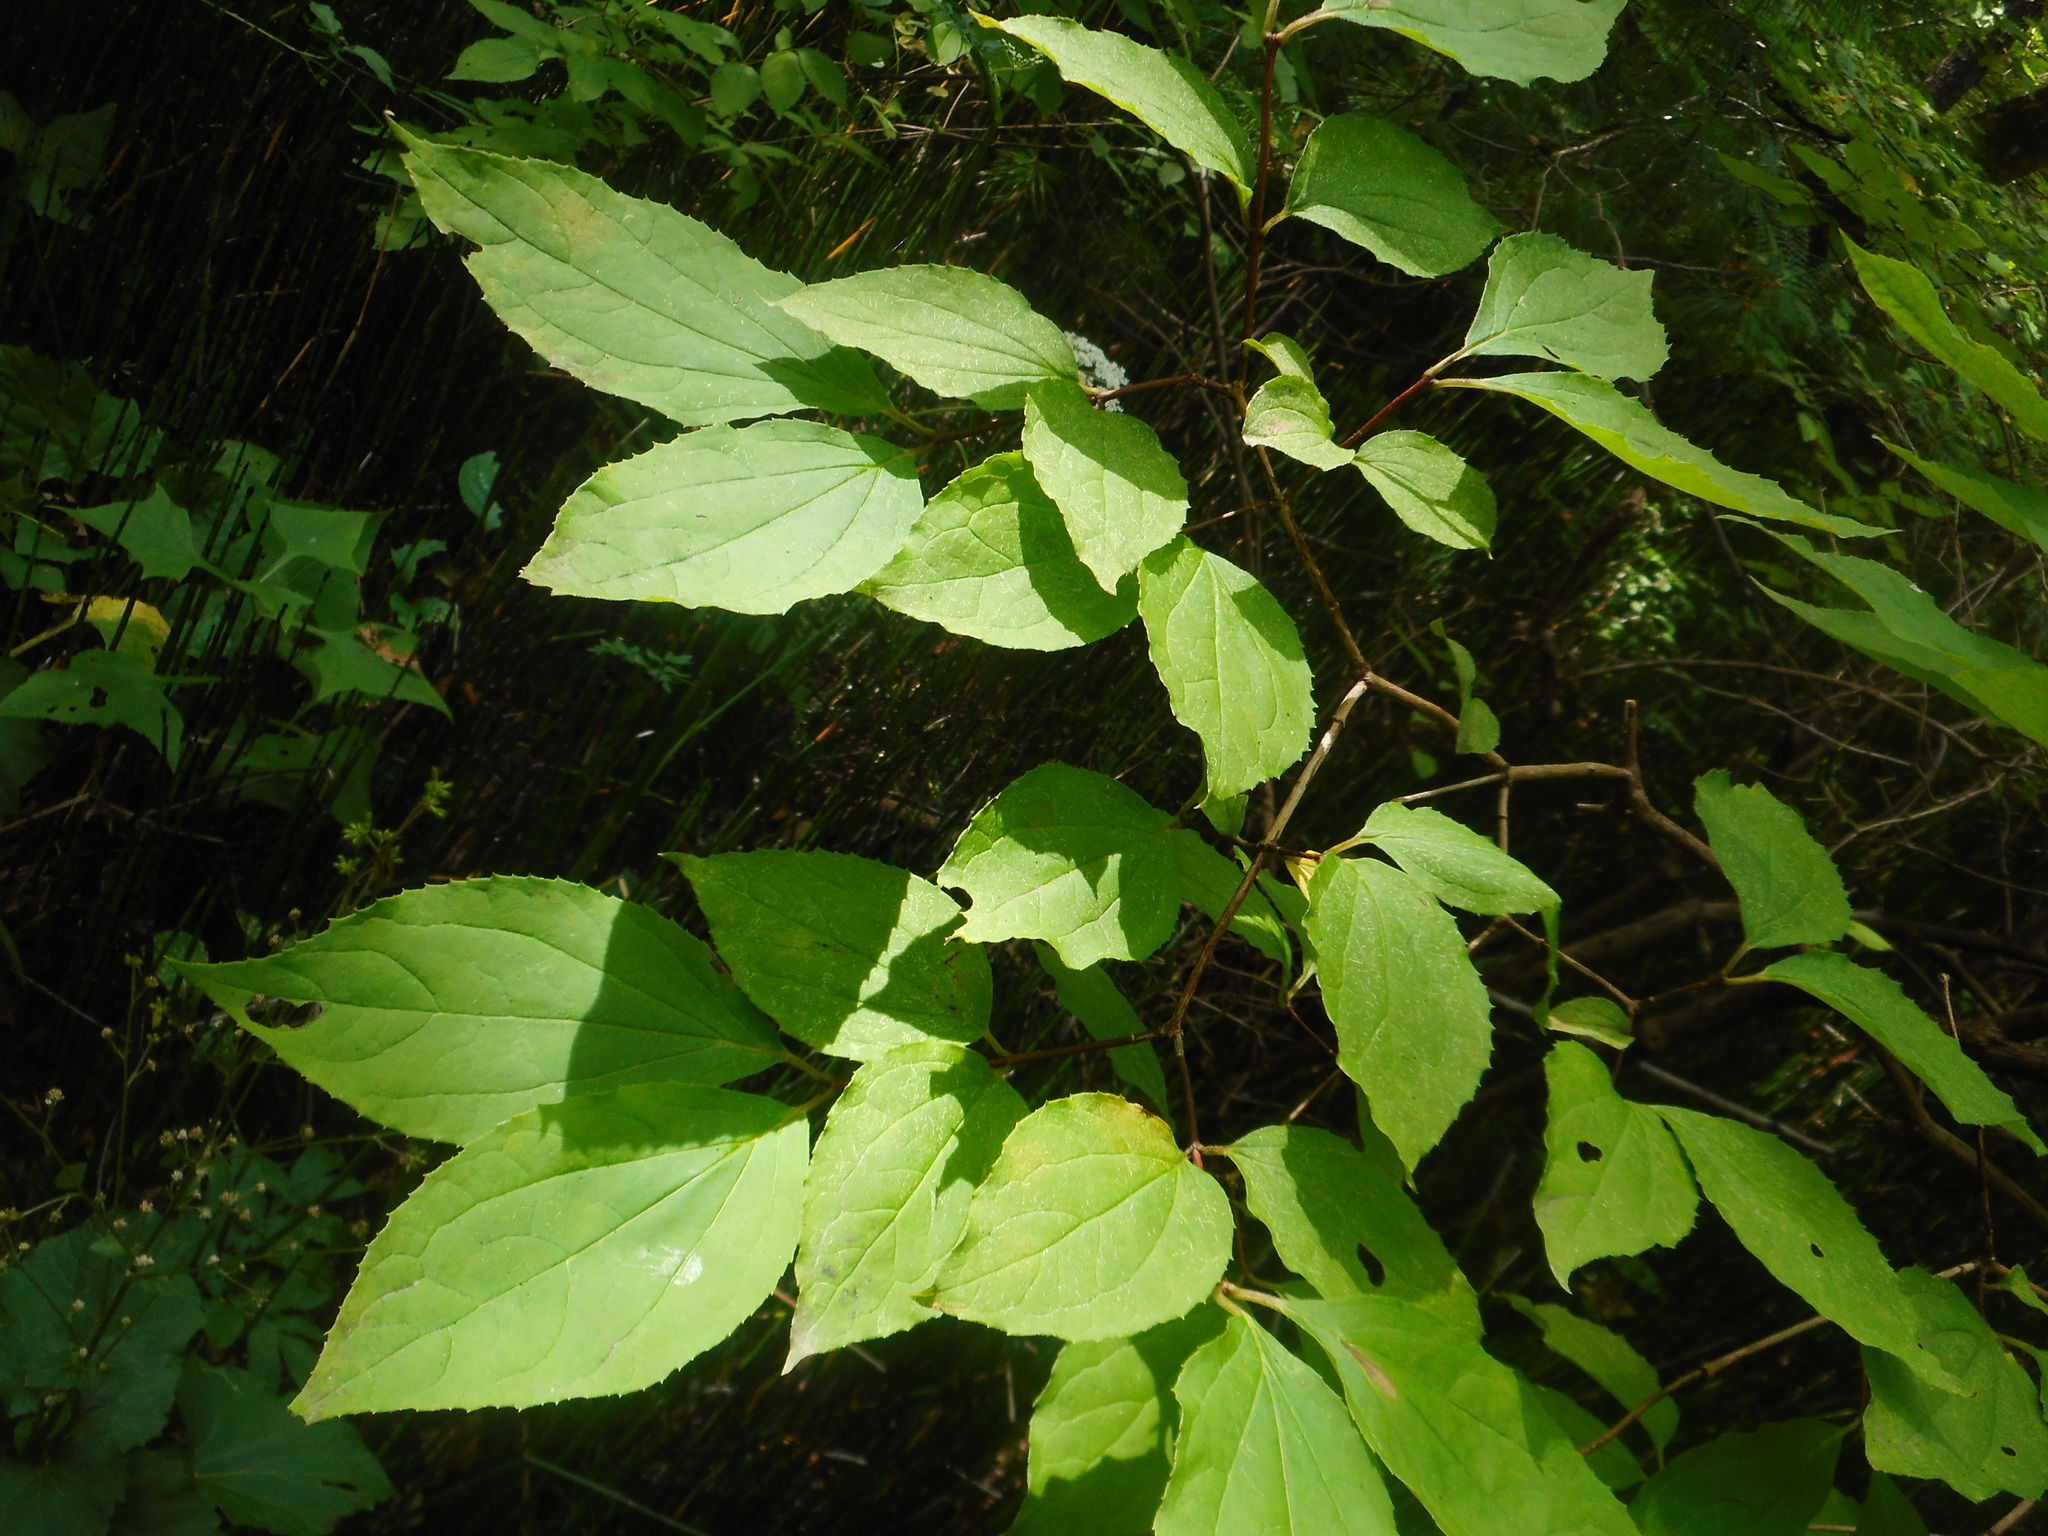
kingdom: Plantae
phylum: Tracheophyta
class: Magnoliopsida
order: Cornales
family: Hydrangeaceae
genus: Philadelphus
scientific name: Philadelphus tenuifolius
